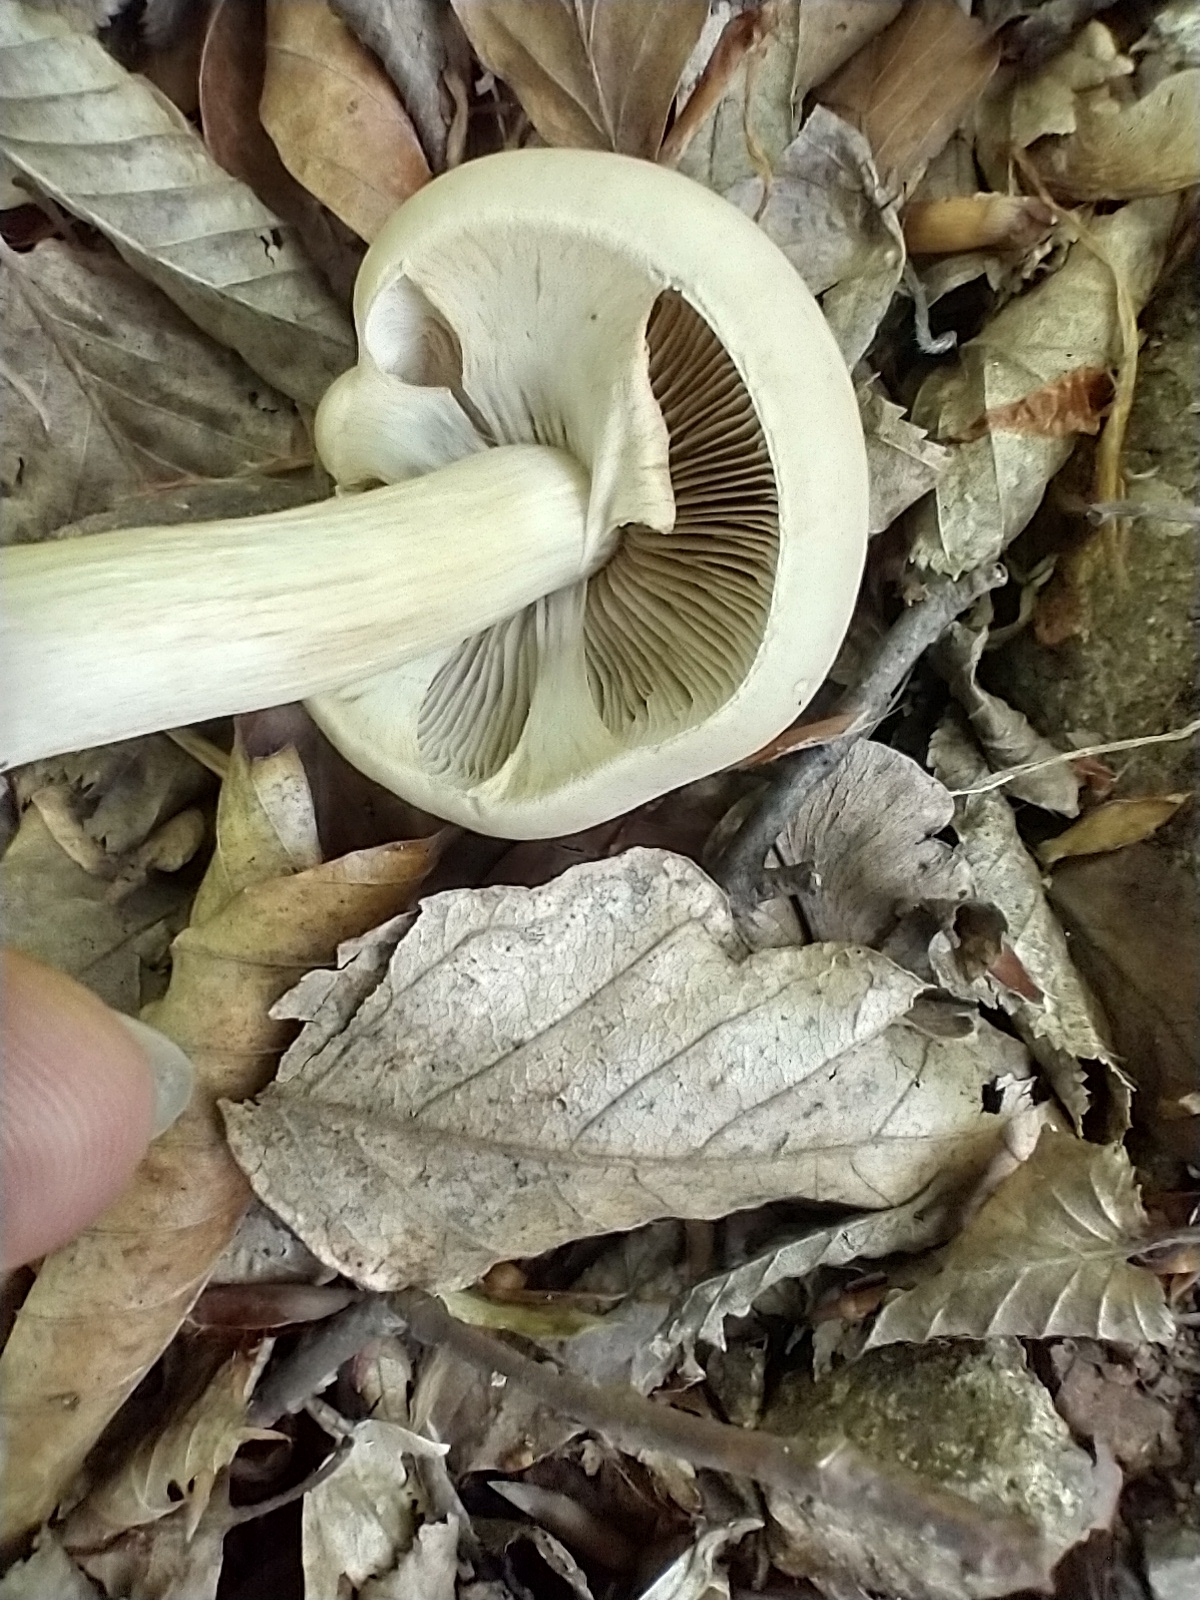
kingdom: Fungi
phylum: Basidiomycota
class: Agaricomycetes
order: Agaricales
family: Strophariaceae
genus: Agrocybe
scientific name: Agrocybe praecox
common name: Spring fieldcap
